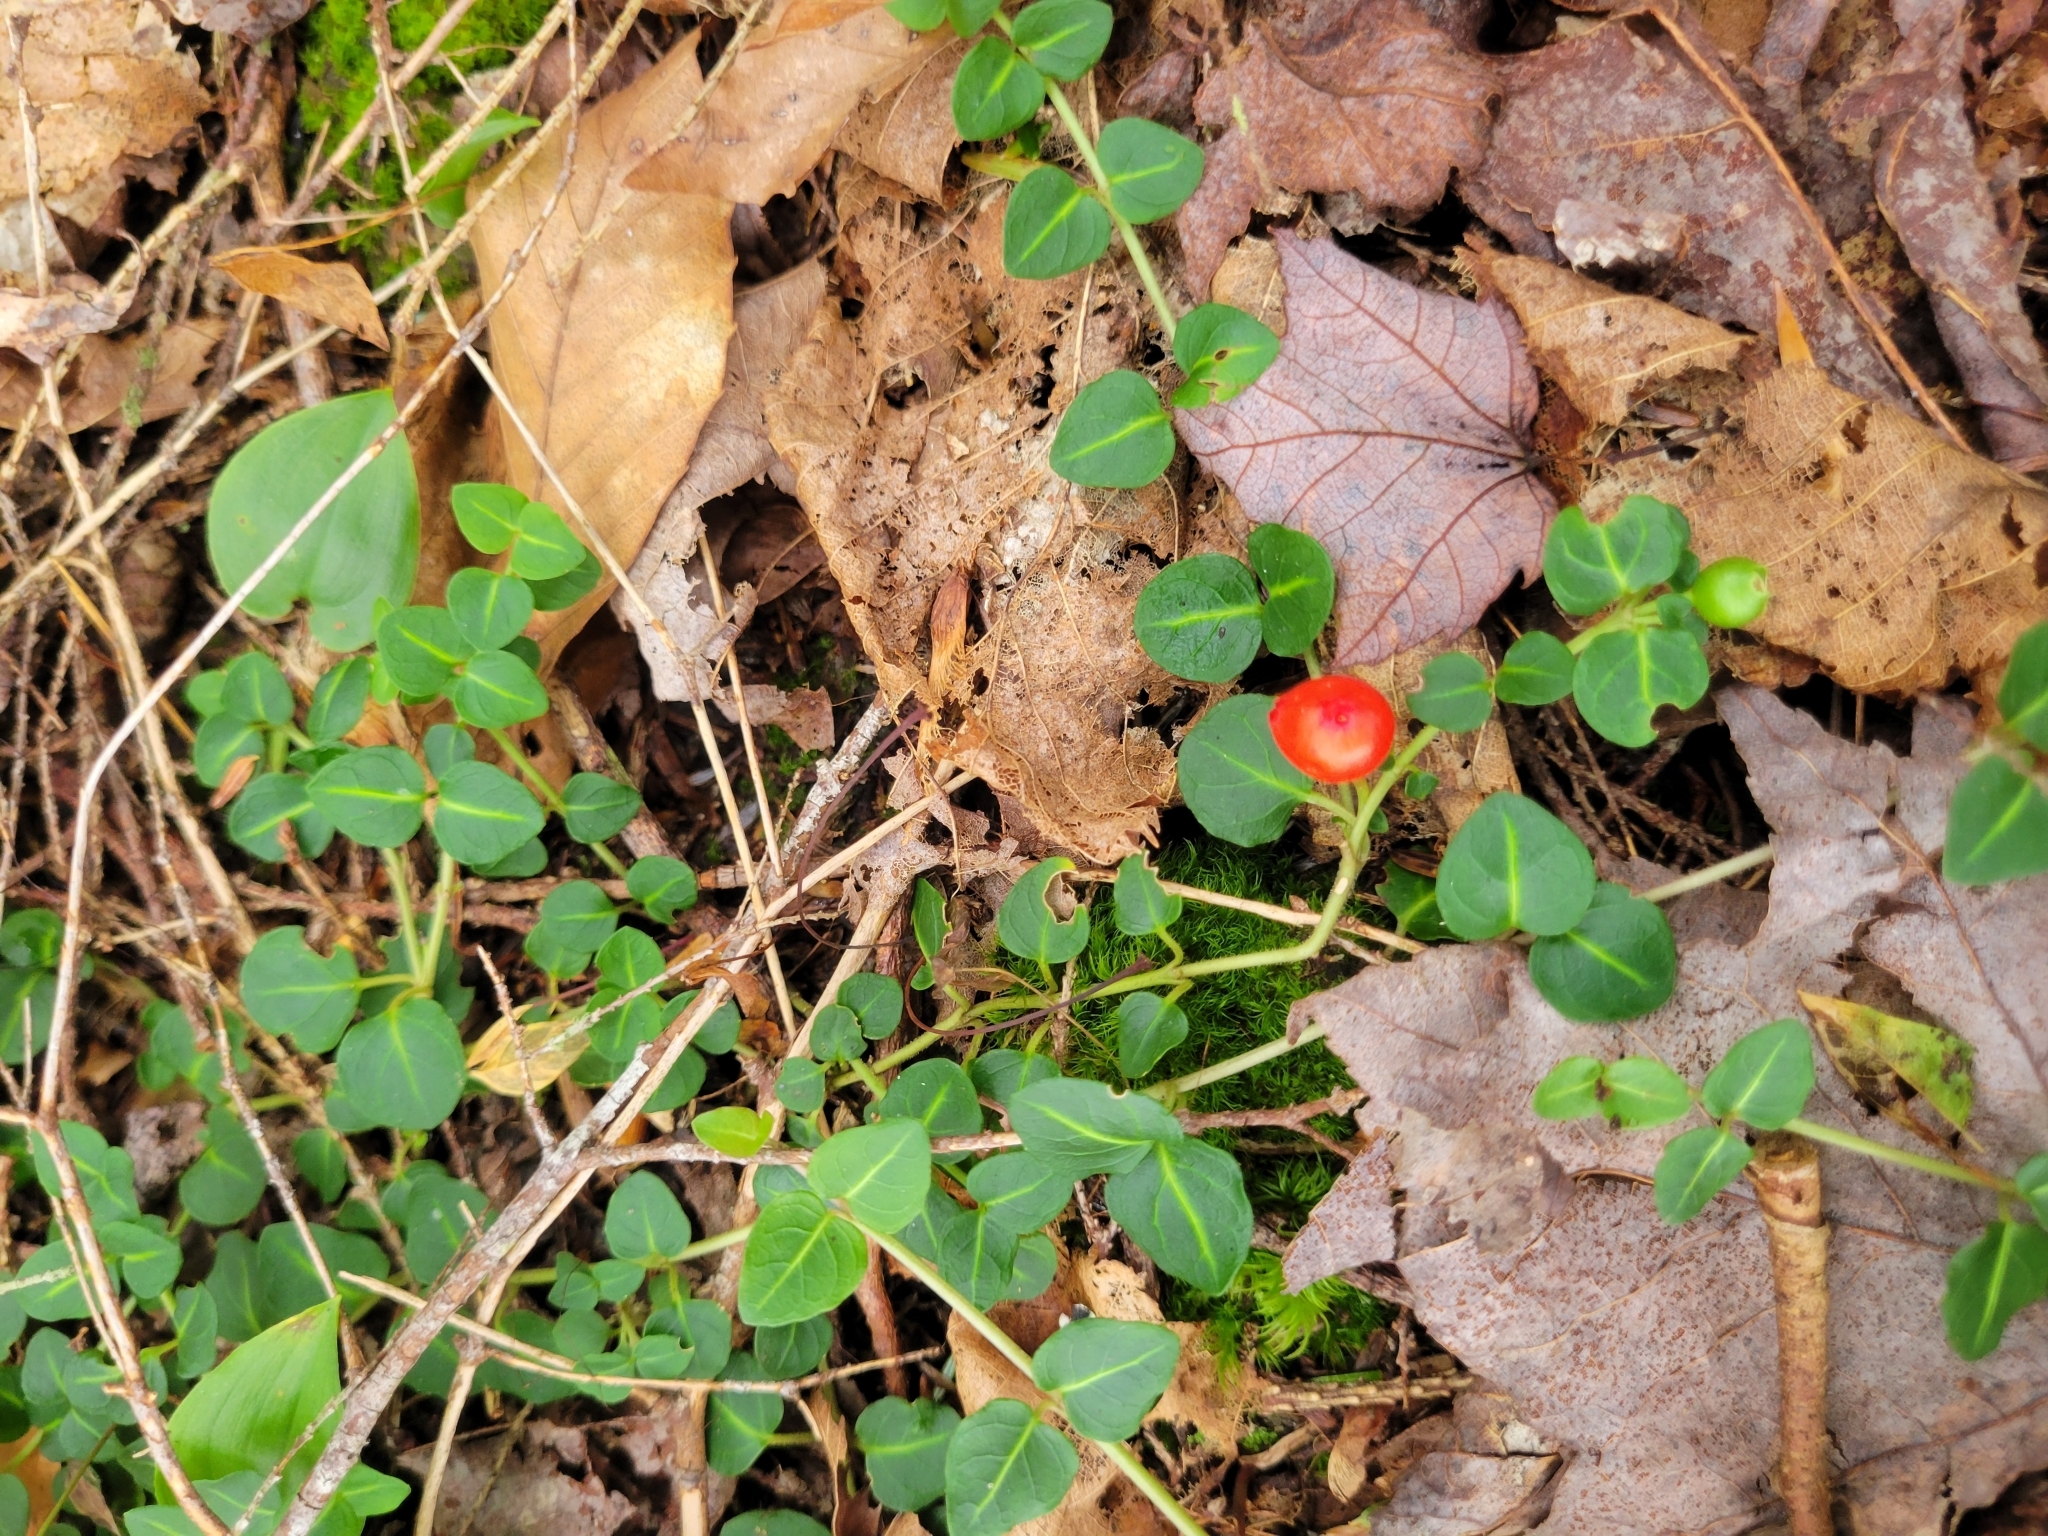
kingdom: Plantae
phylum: Tracheophyta
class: Magnoliopsida
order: Gentianales
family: Rubiaceae
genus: Mitchella
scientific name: Mitchella repens
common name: Partridge-berry
